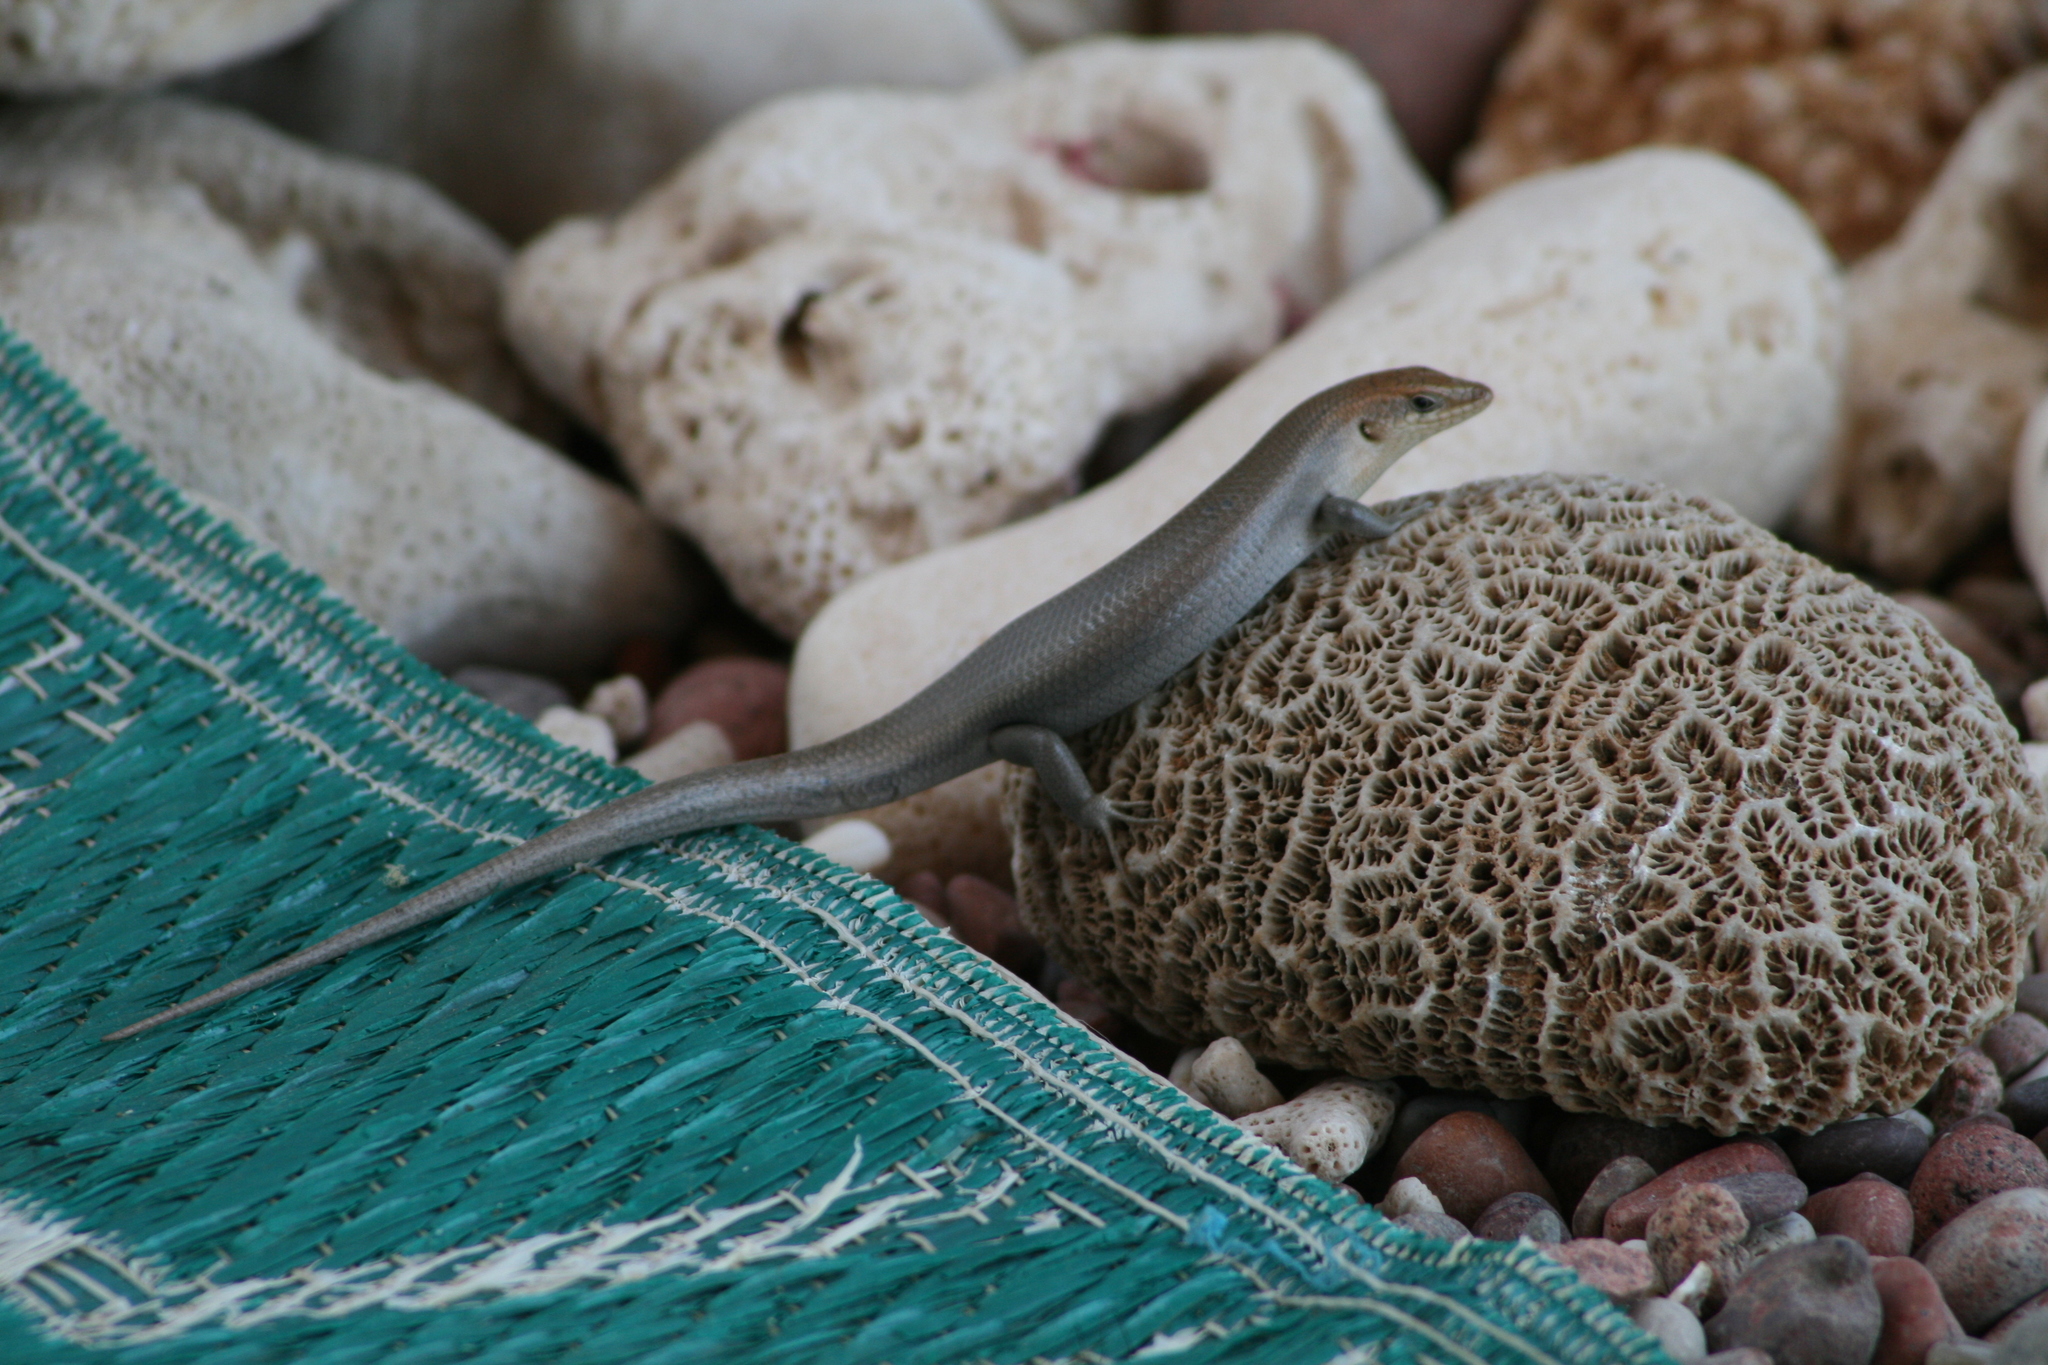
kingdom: Animalia
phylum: Chordata
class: Squamata
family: Scincidae
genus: Trachylepis
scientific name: Trachylepis socotrana
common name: Socotra mabuya
